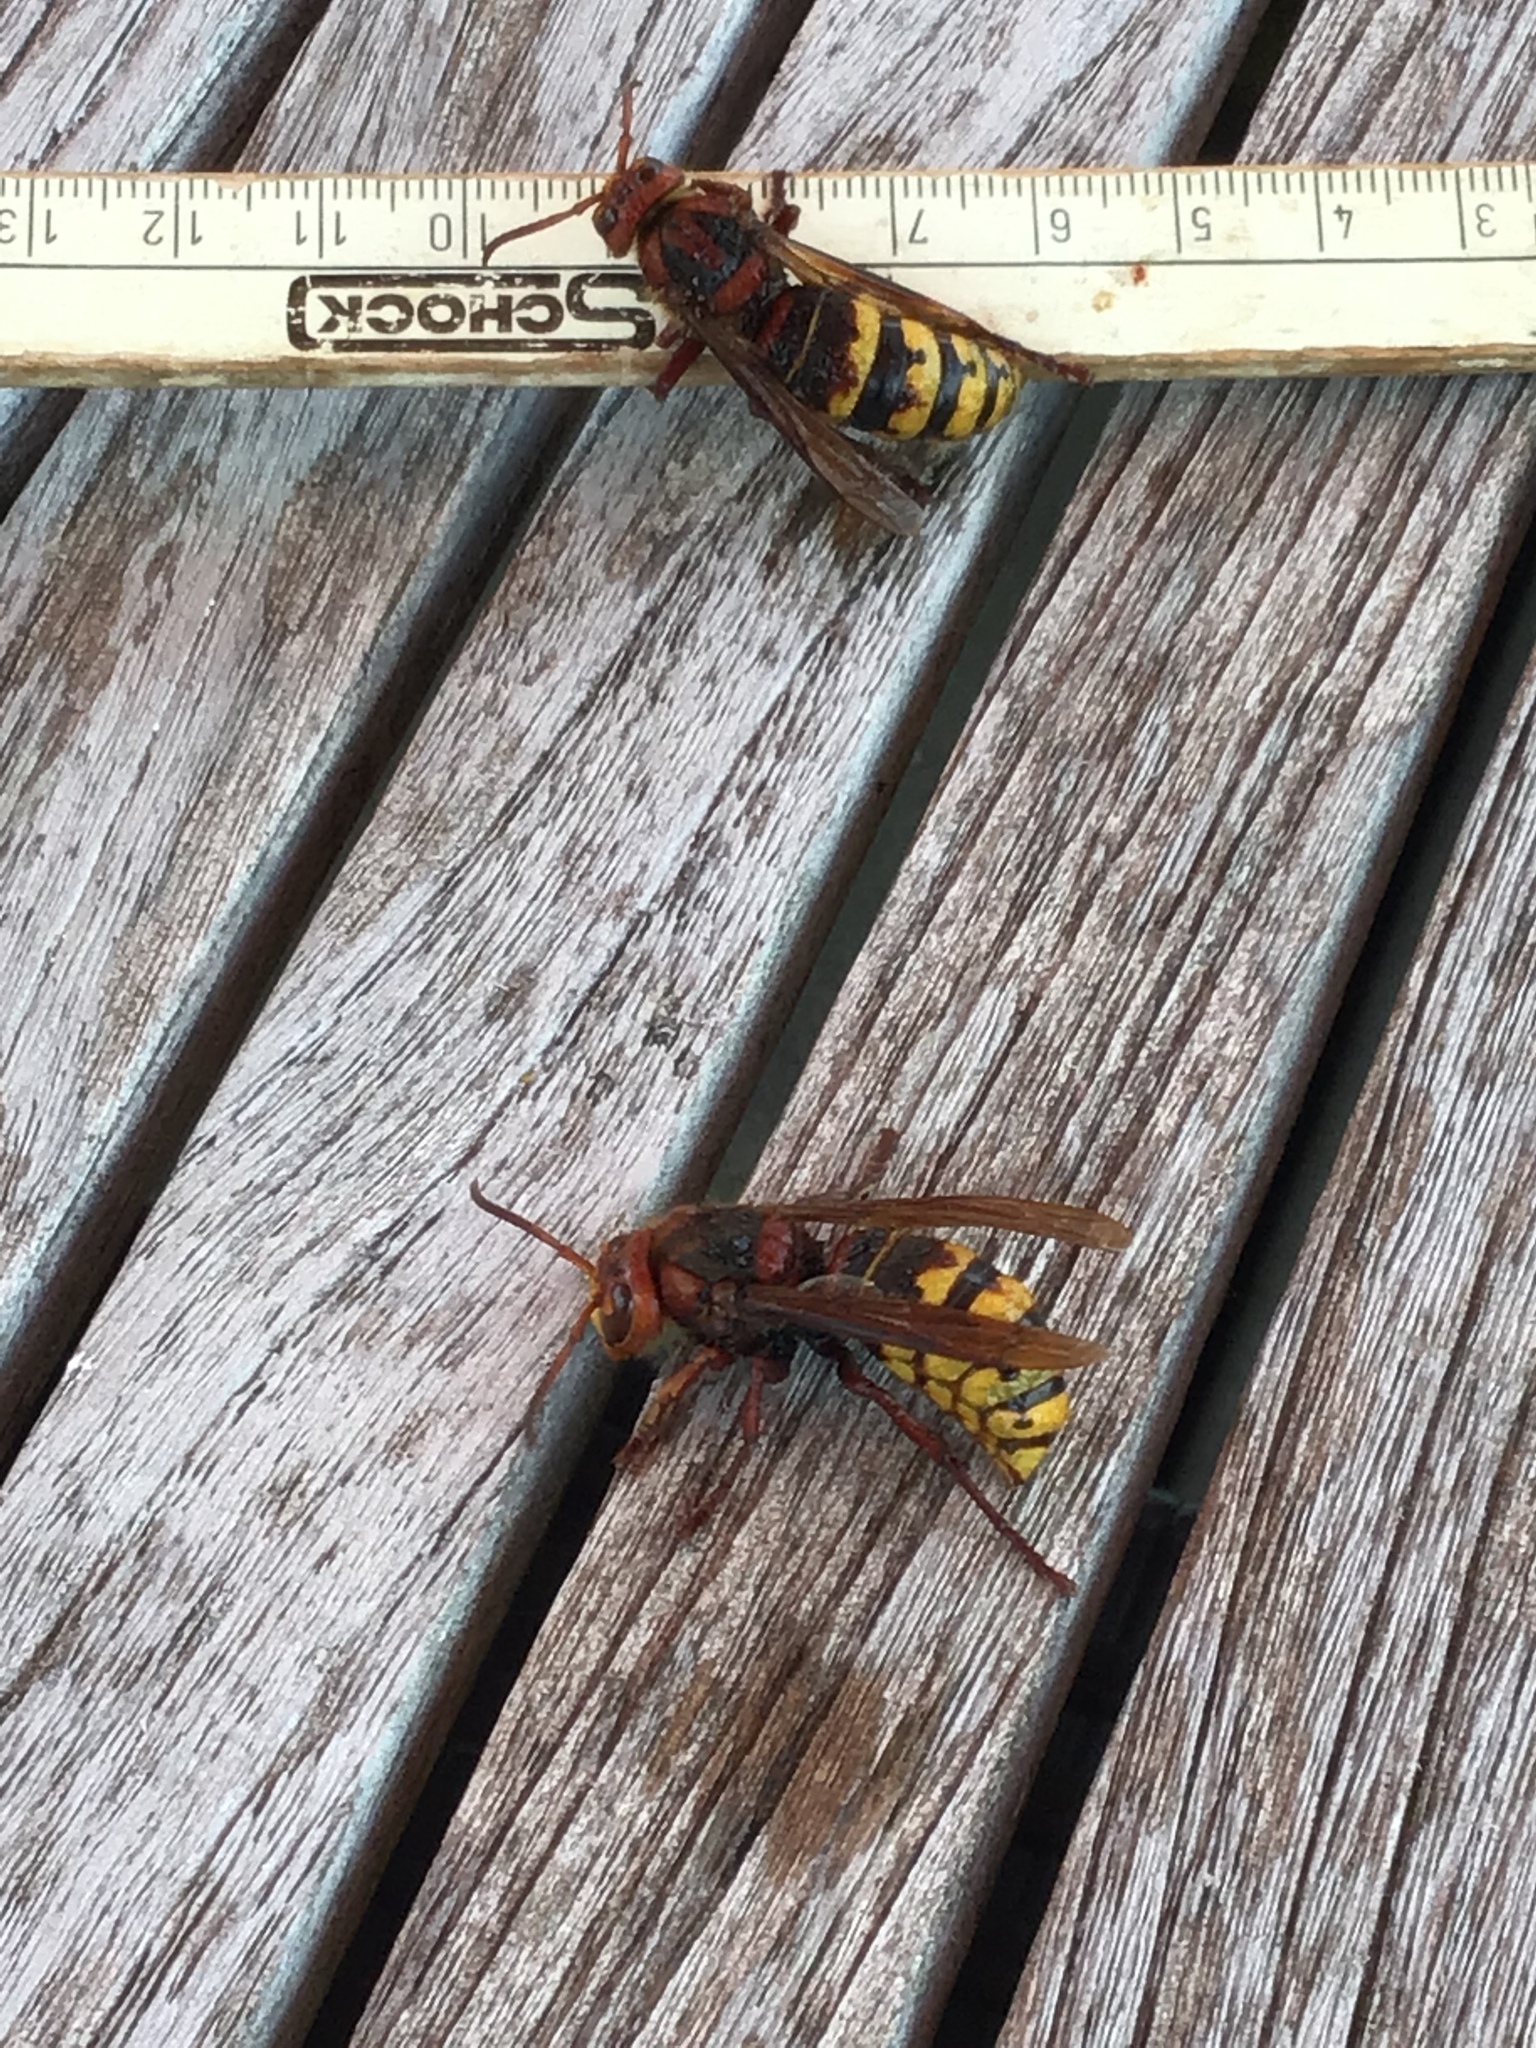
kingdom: Animalia
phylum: Arthropoda
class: Insecta
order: Hymenoptera
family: Vespidae
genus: Vespa
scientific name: Vespa crabro
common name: Hornet
